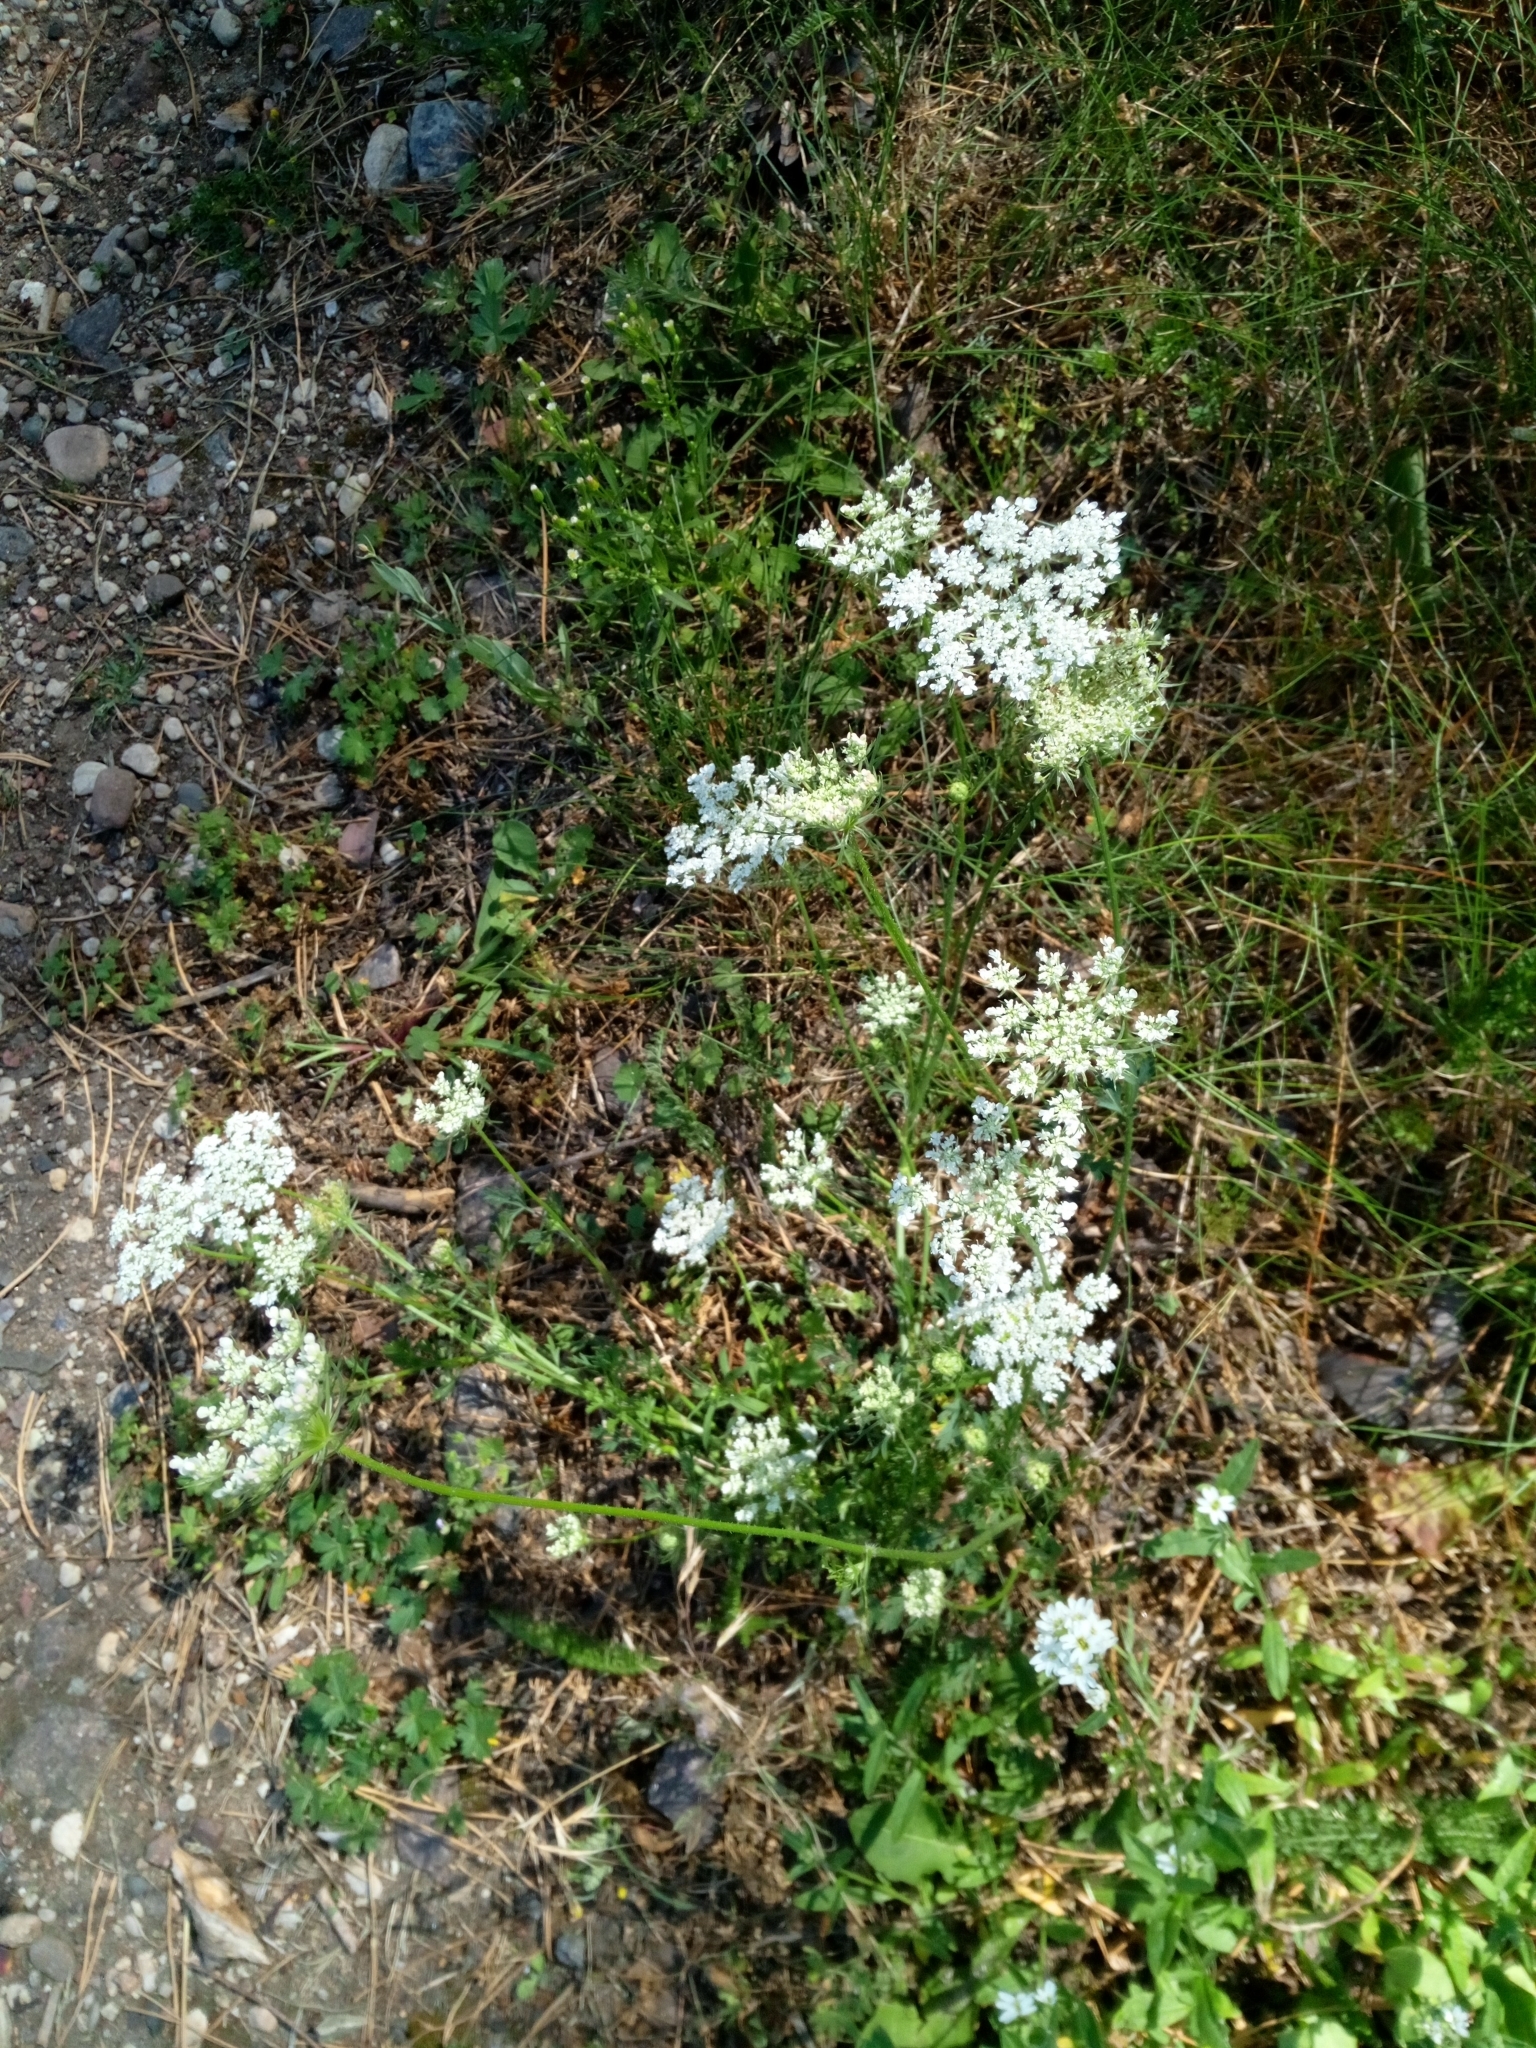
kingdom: Plantae
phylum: Tracheophyta
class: Magnoliopsida
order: Apiales
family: Apiaceae
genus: Daucus
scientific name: Daucus carota
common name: Wild carrot
